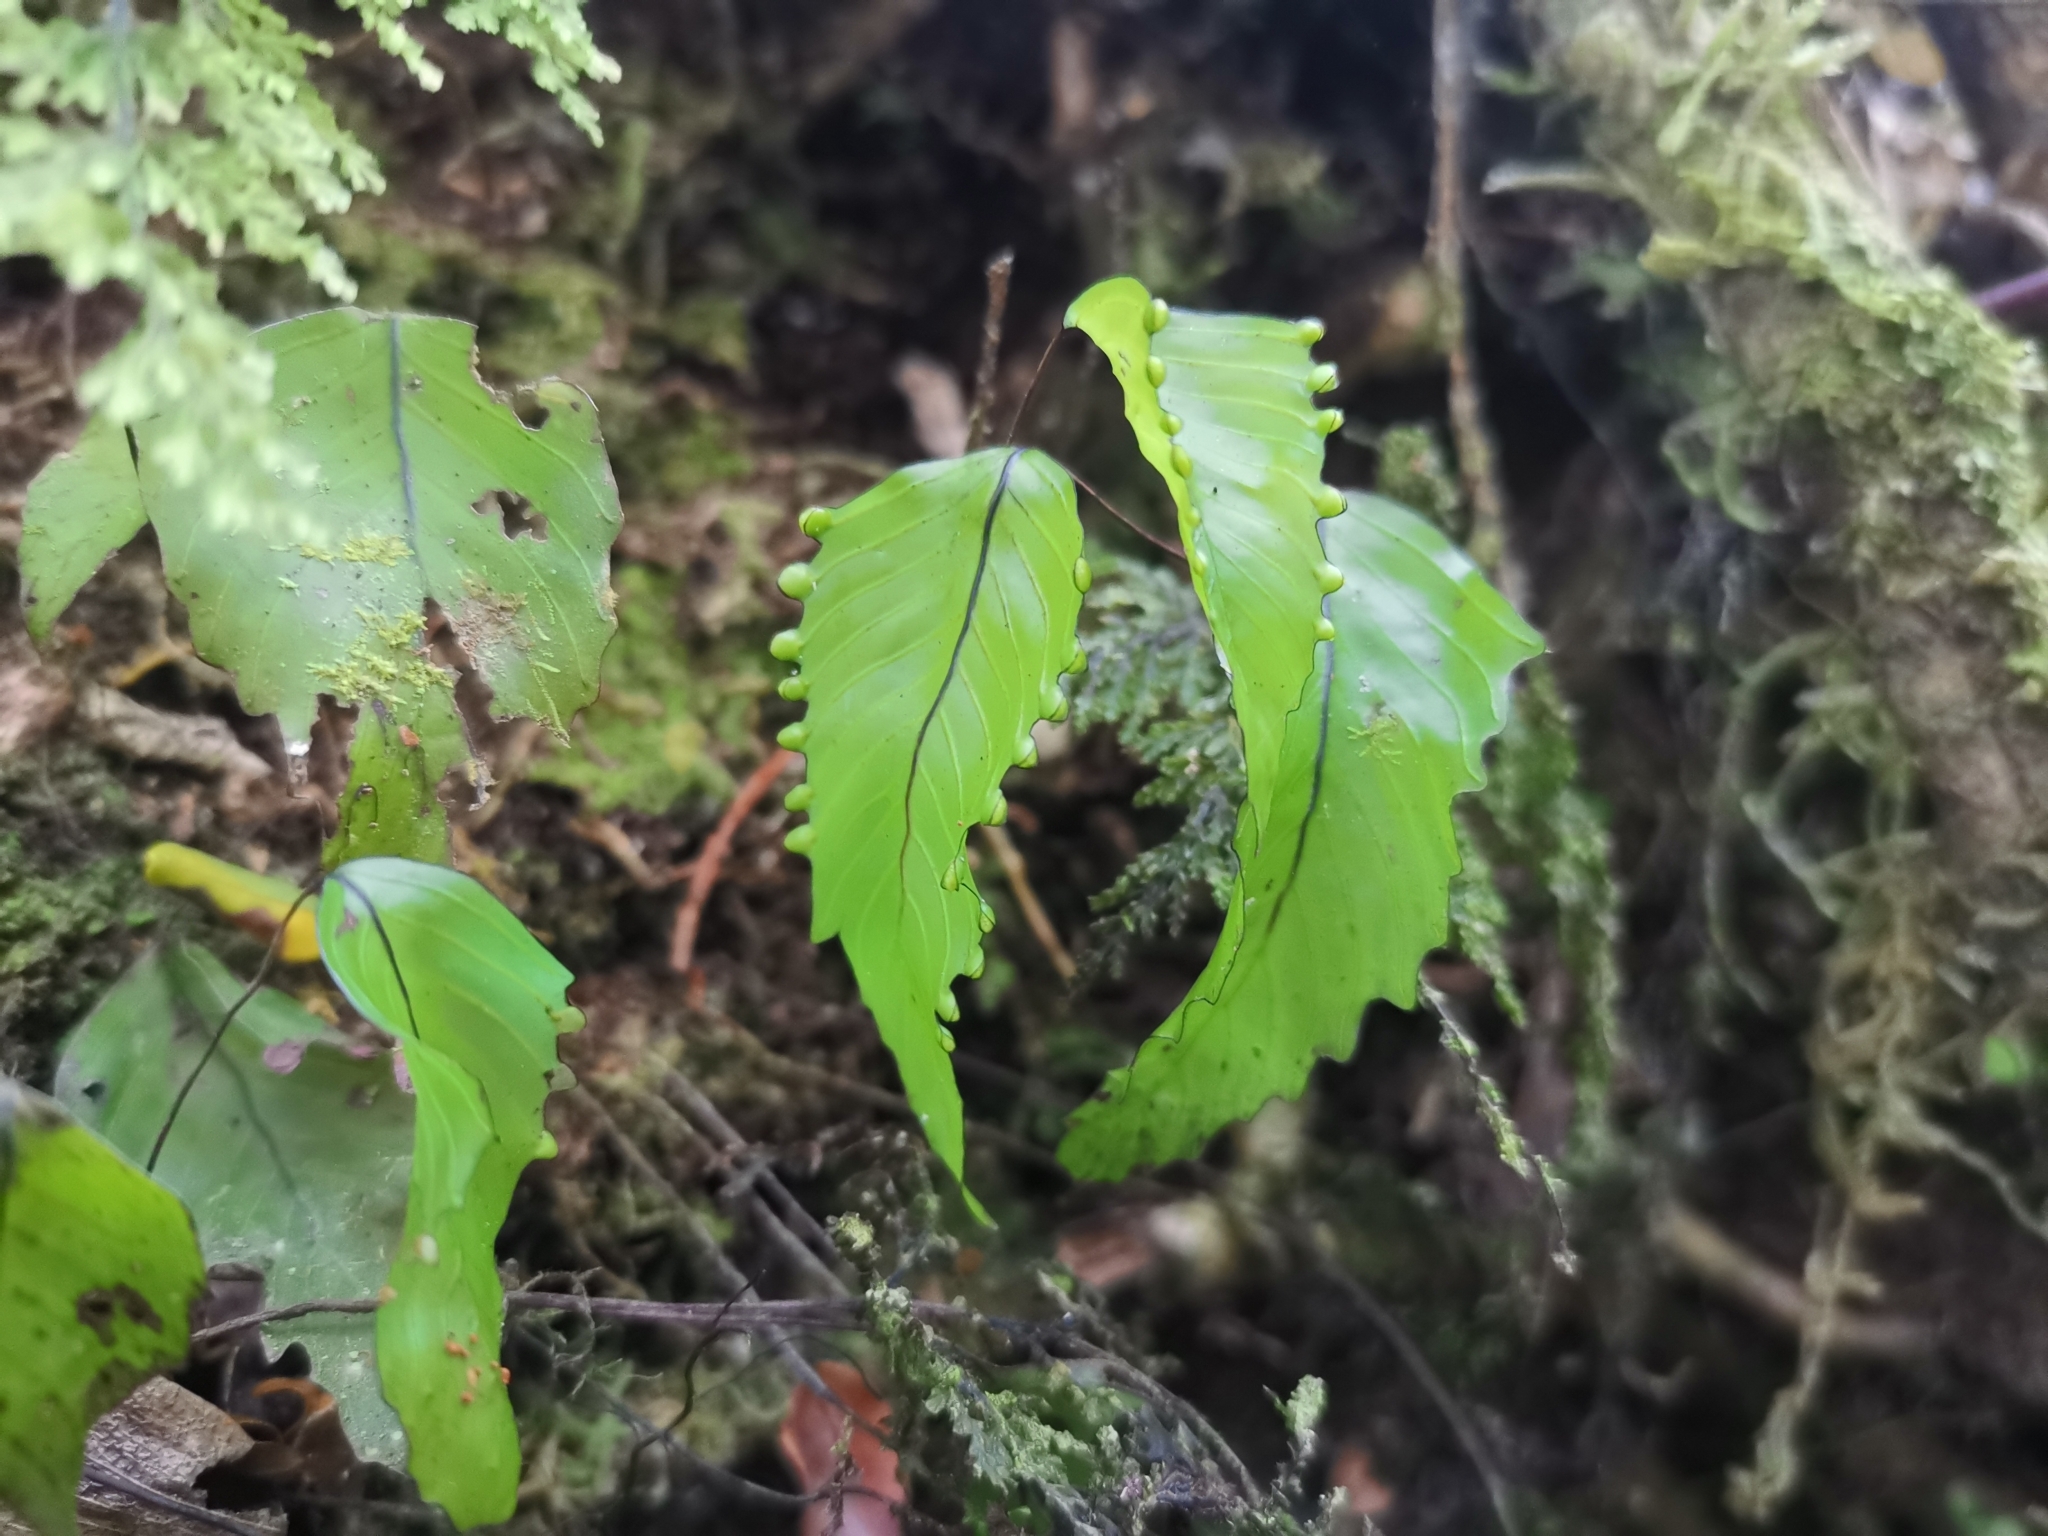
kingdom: Plantae
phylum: Tracheophyta
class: Polypodiopsida
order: Hymenophyllales
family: Hymenophyllaceae
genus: Hymenophyllum
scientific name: Hymenophyllum cruentum
